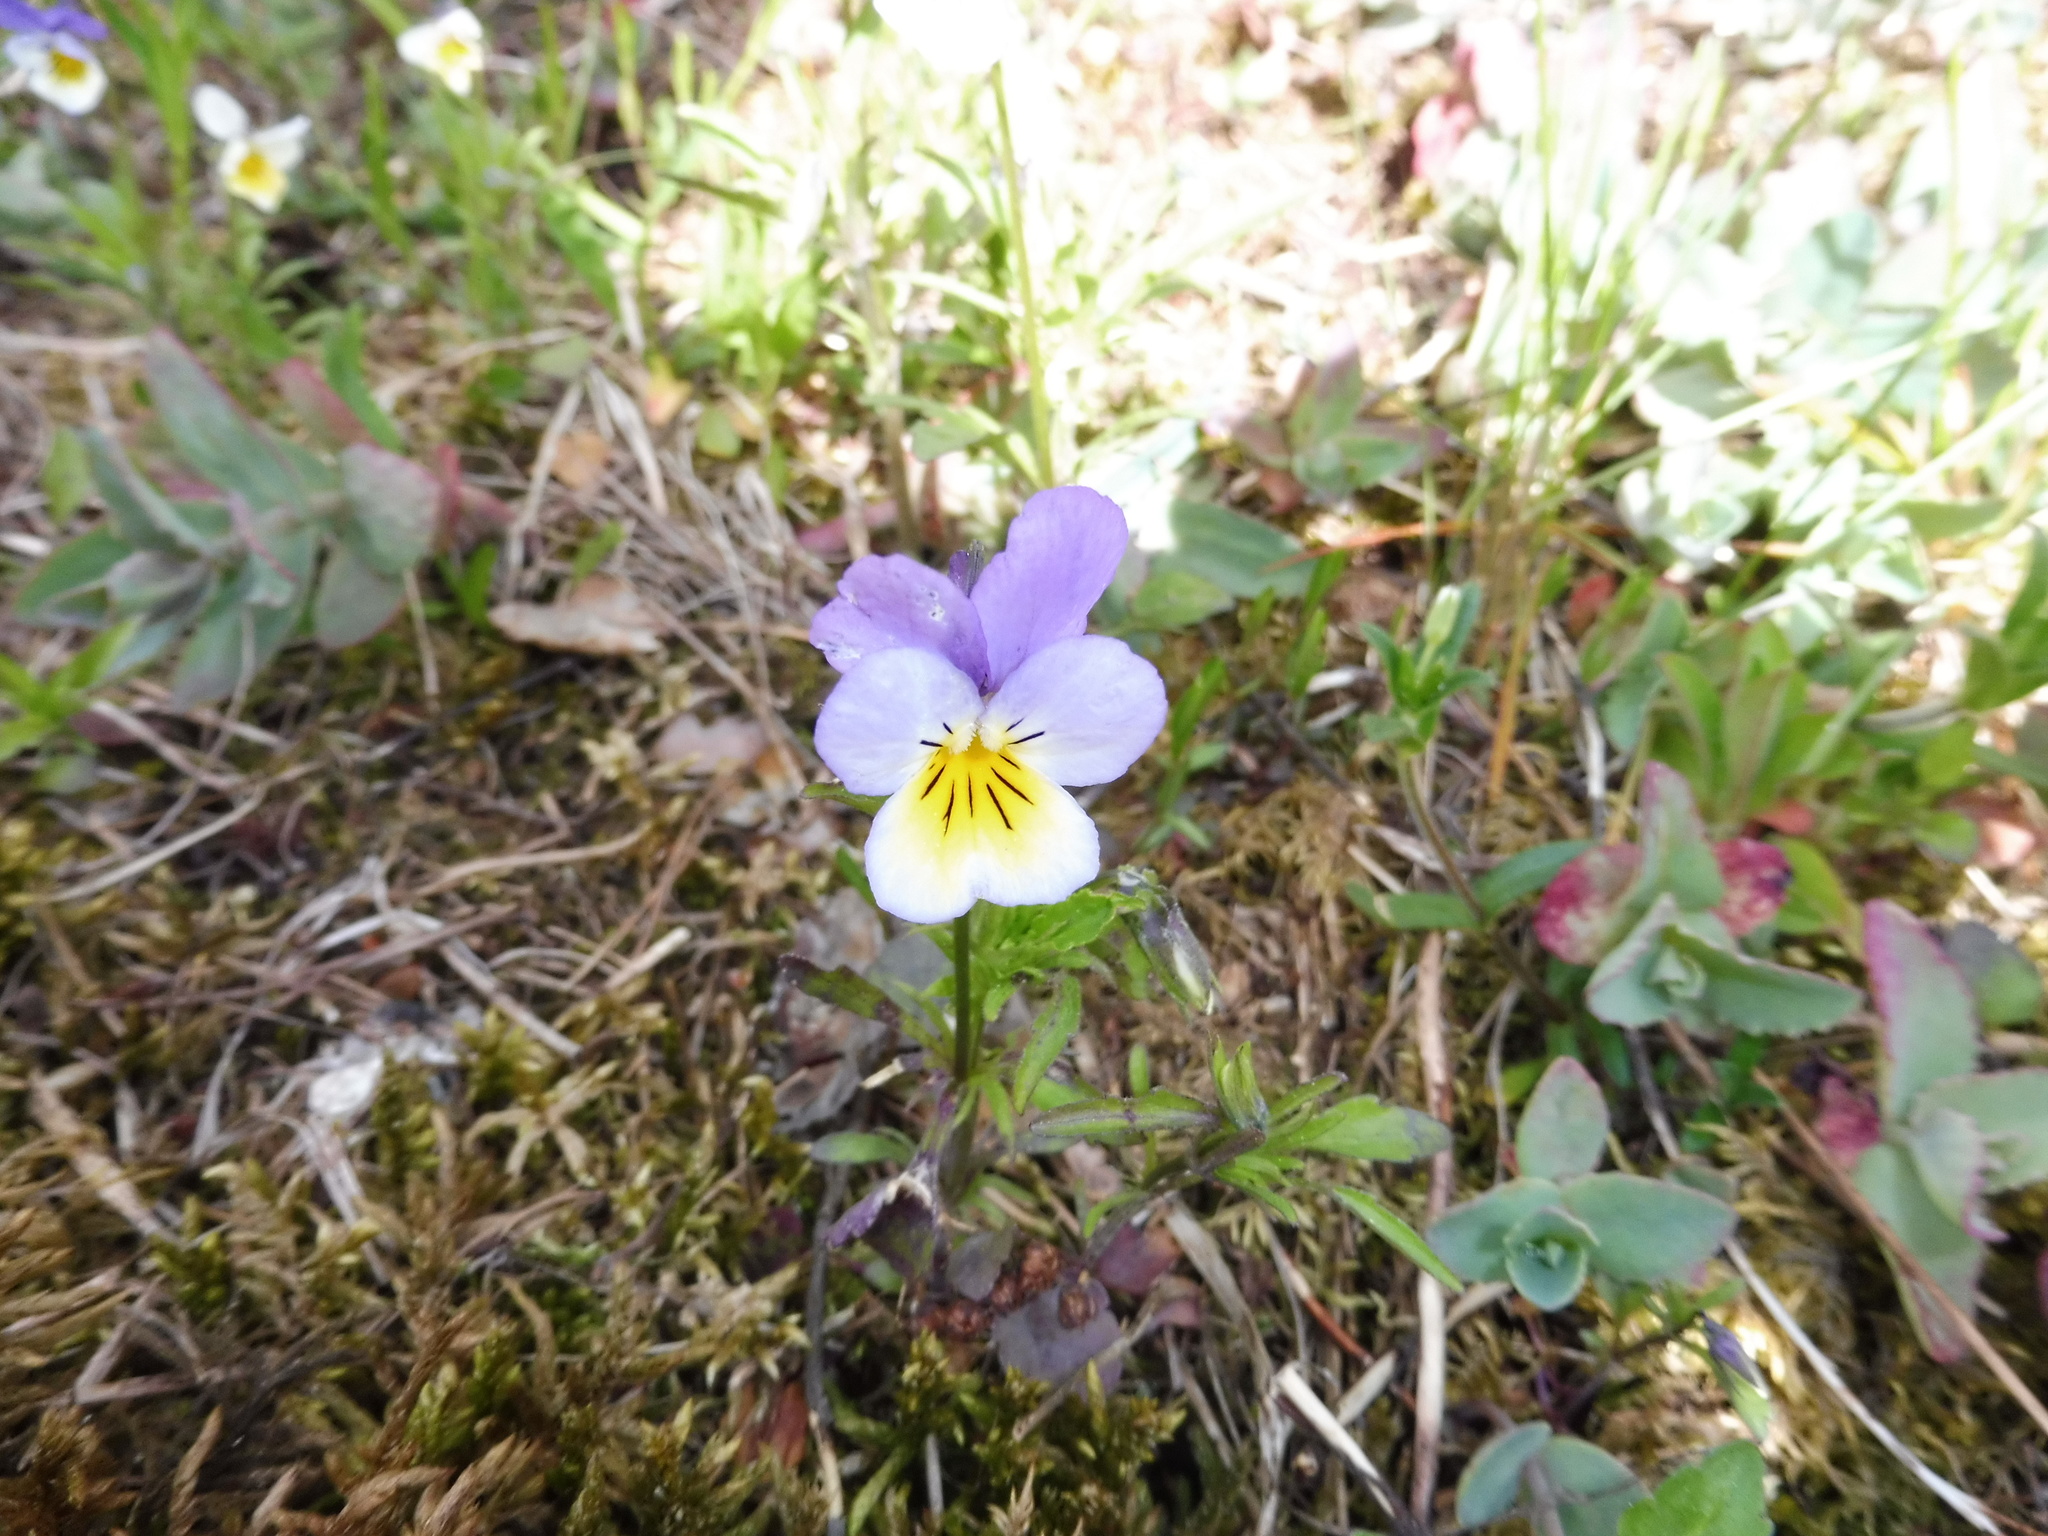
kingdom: Plantae
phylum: Tracheophyta
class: Magnoliopsida
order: Malpighiales
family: Violaceae
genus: Viola
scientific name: Viola tricolor
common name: Pansy
